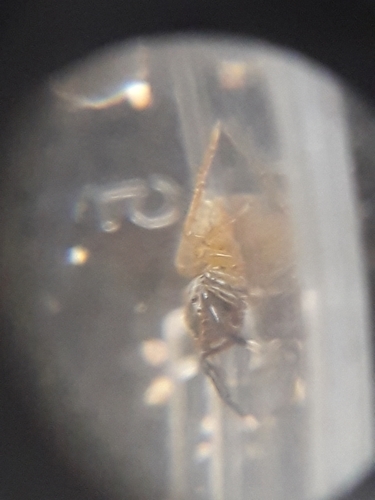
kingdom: Animalia
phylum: Arthropoda
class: Arachnida
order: Araneae
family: Salticidae
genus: Euophrys
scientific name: Euophrys frontalis
